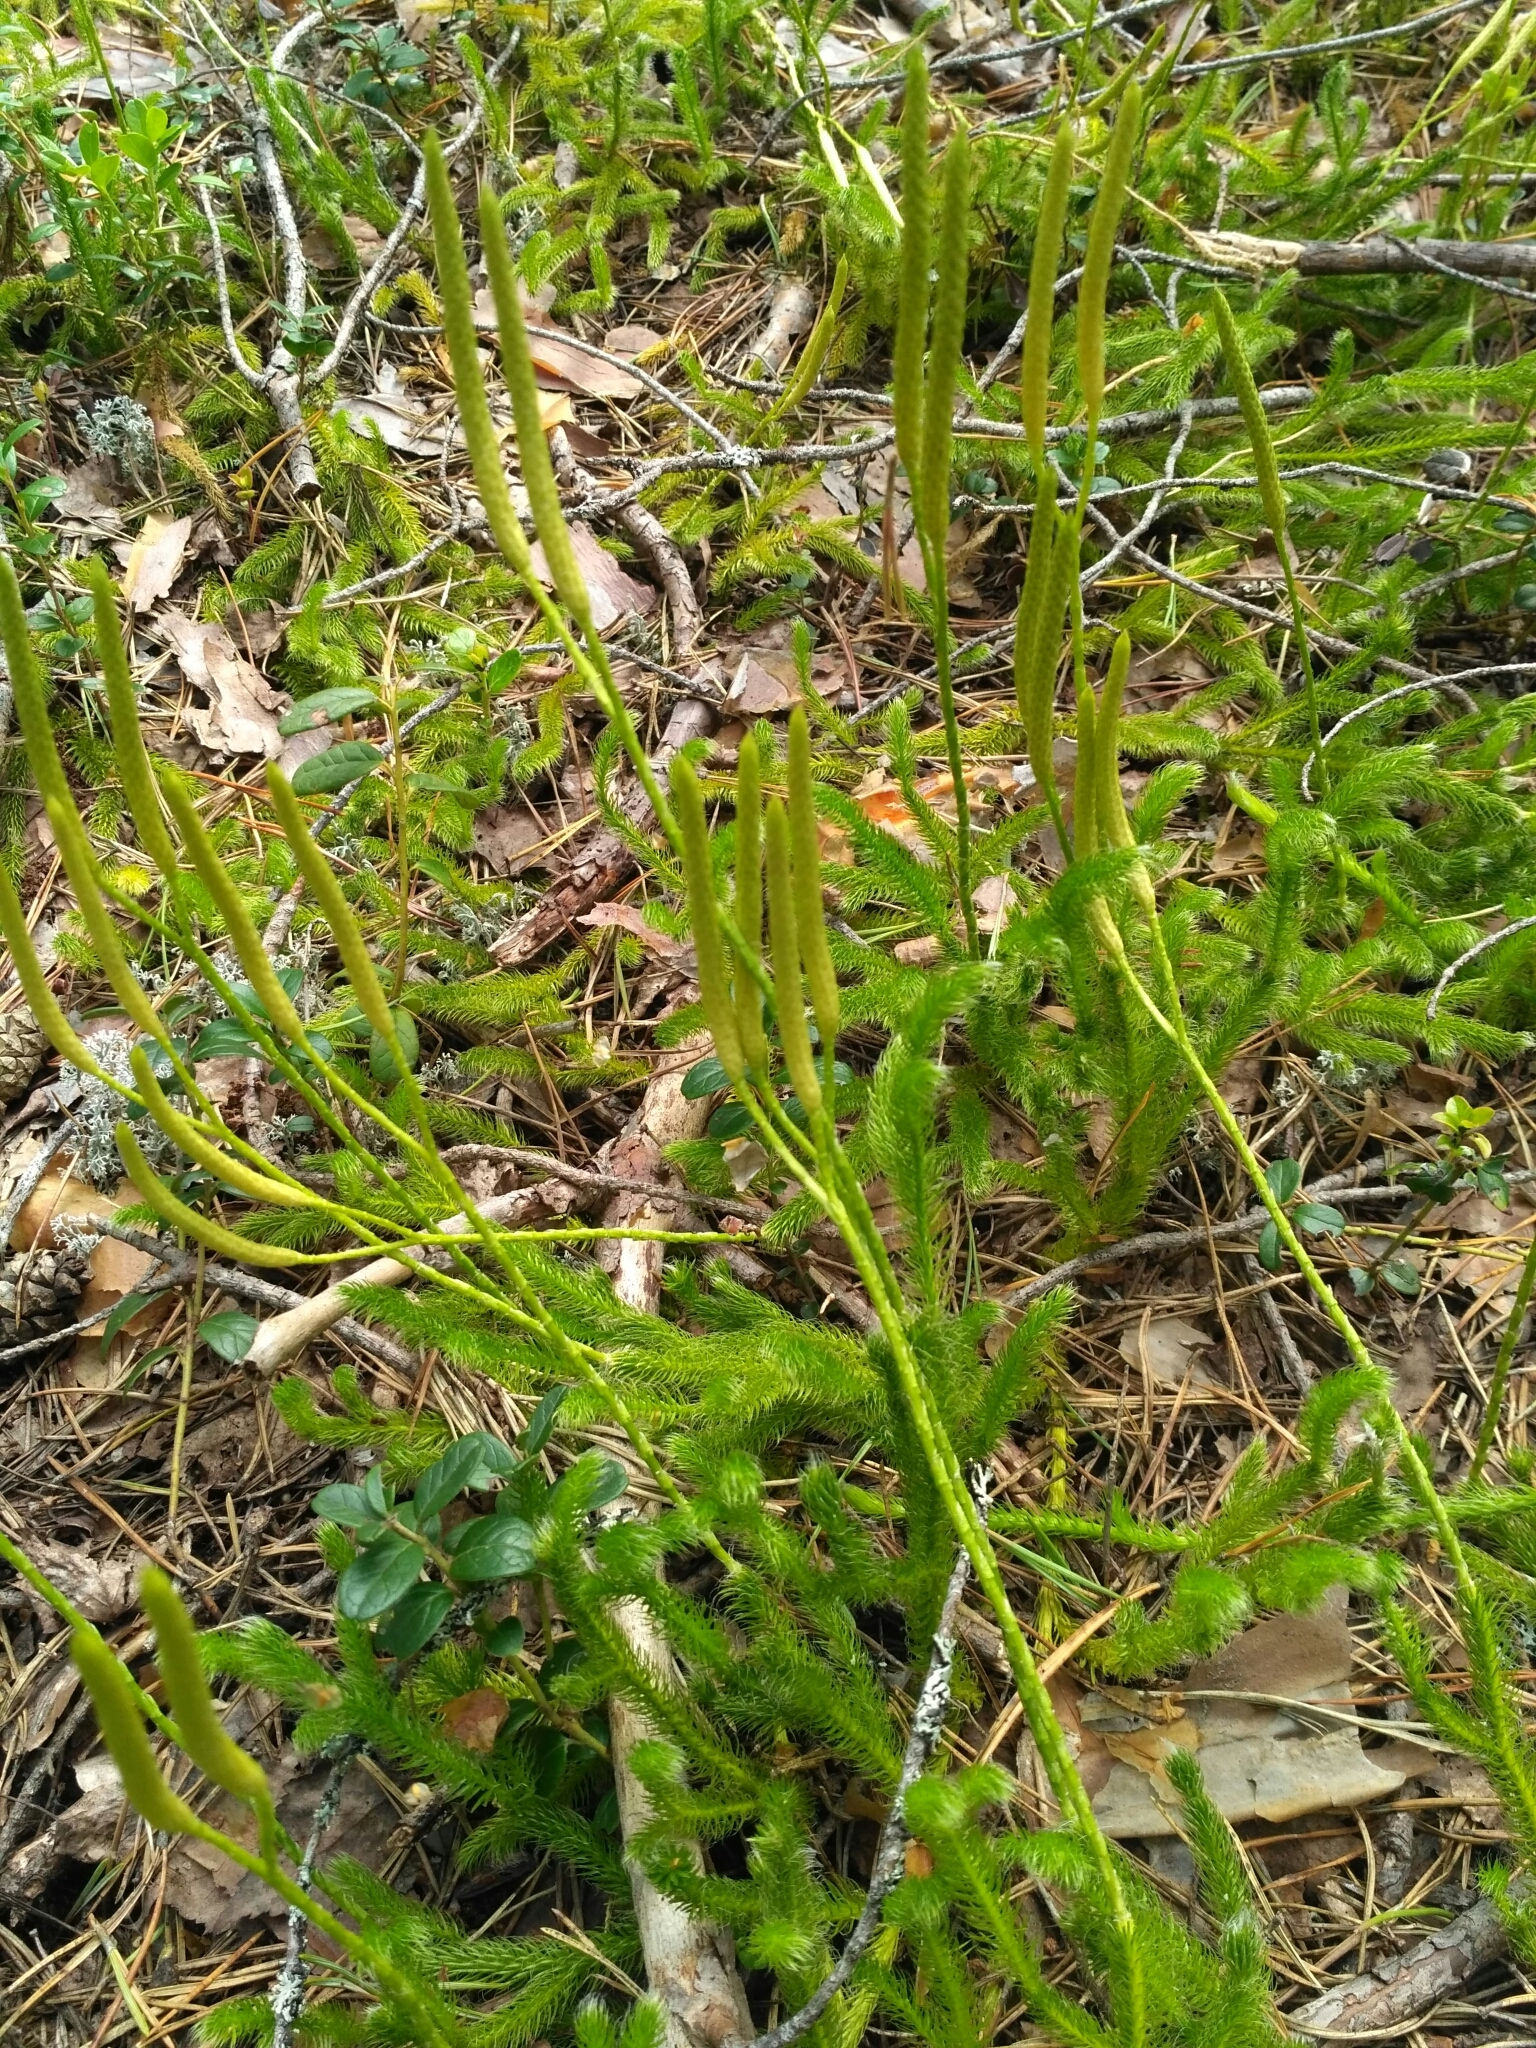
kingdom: Plantae
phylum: Tracheophyta
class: Lycopodiopsida
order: Lycopodiales
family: Lycopodiaceae
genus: Lycopodium
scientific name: Lycopodium clavatum
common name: Stag's-horn clubmoss
